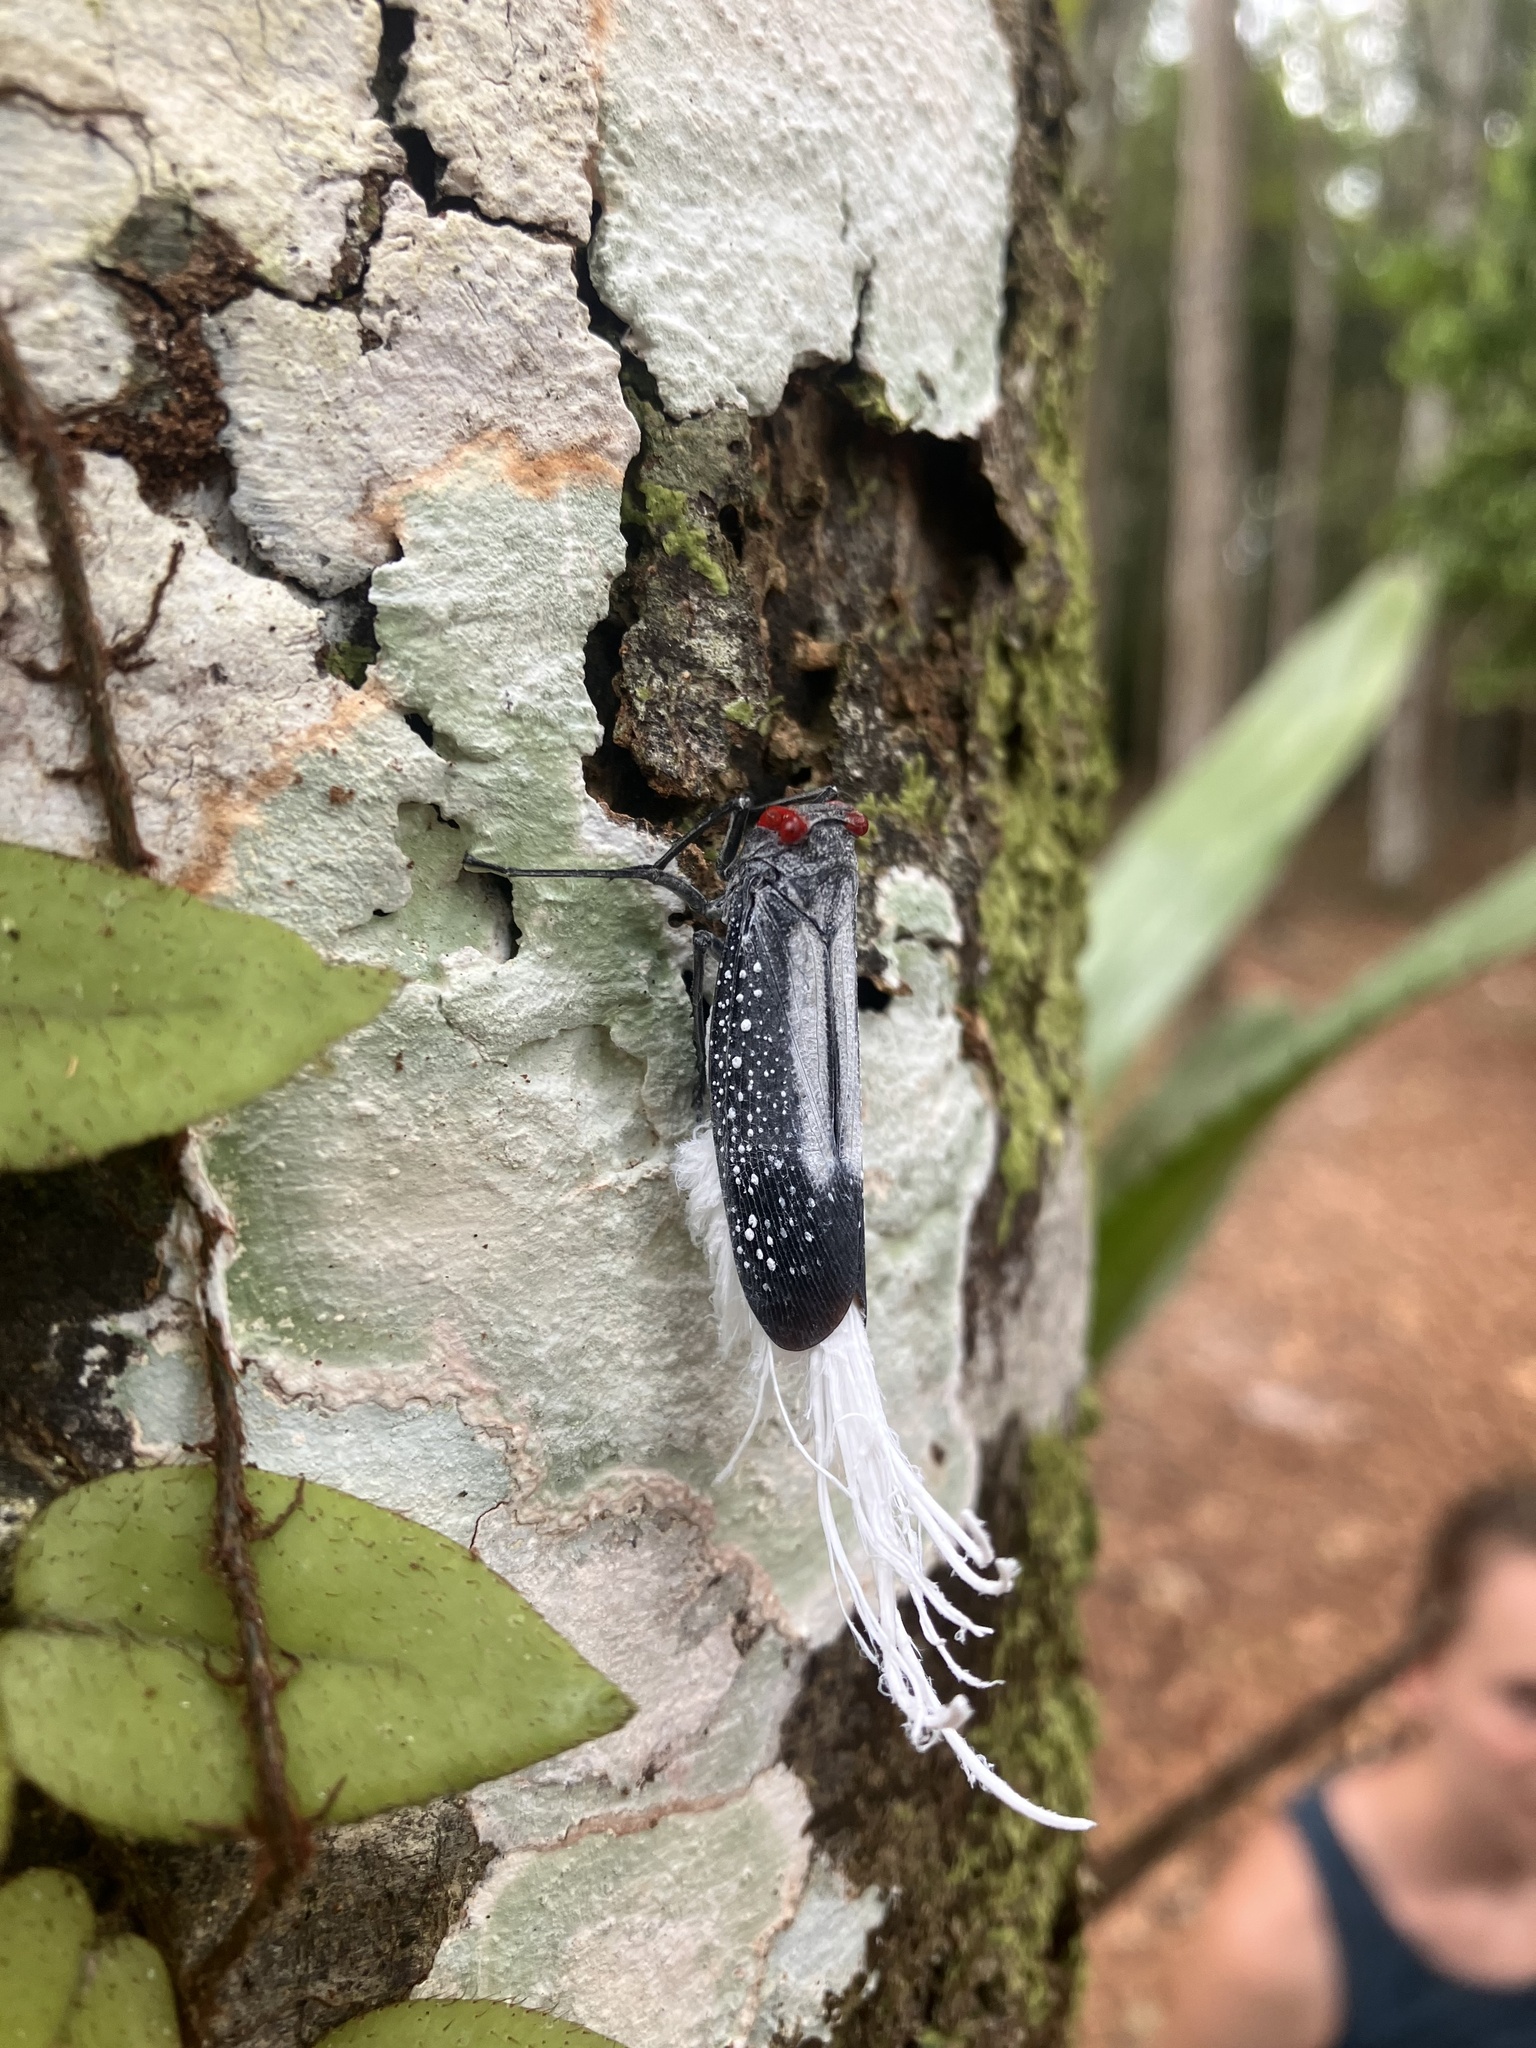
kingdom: Animalia
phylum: Arthropoda
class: Insecta
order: Hemiptera
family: Fulgoridae
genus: Lystra
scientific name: Lystra lanata
